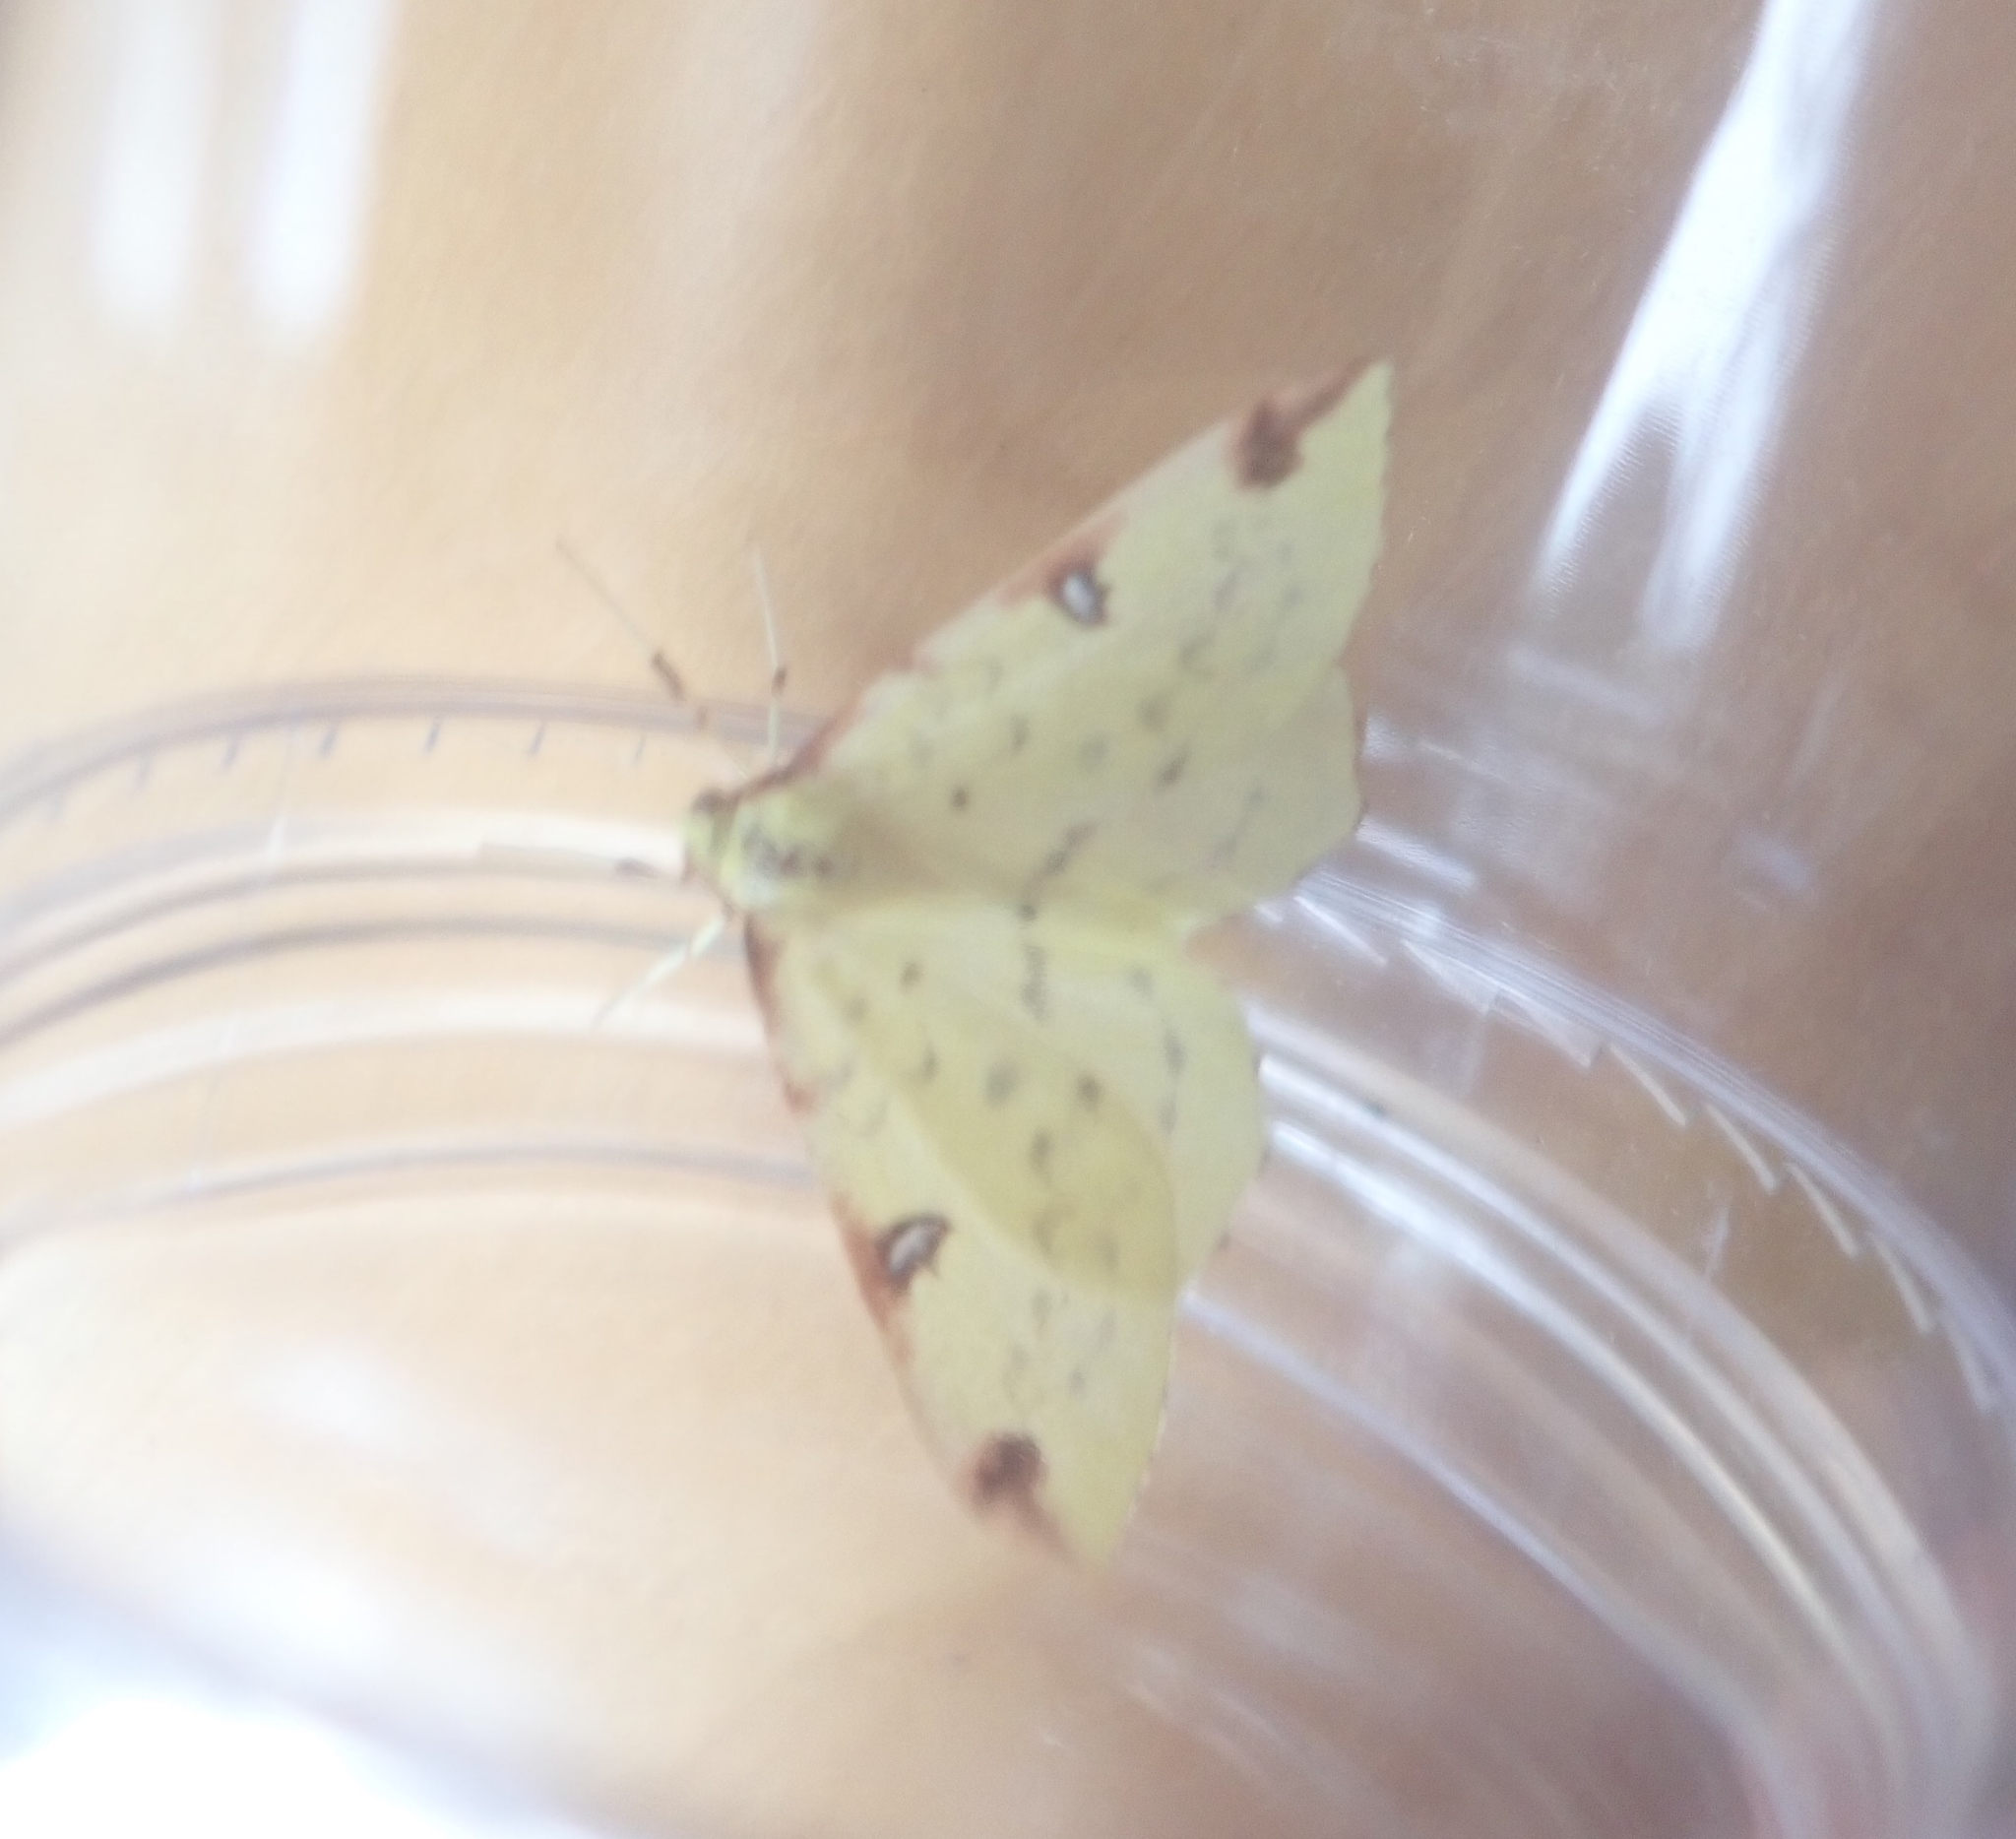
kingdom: Animalia
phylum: Arthropoda
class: Insecta
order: Lepidoptera
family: Geometridae
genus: Opisthograptis
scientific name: Opisthograptis luteolata
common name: Brimstone moth
